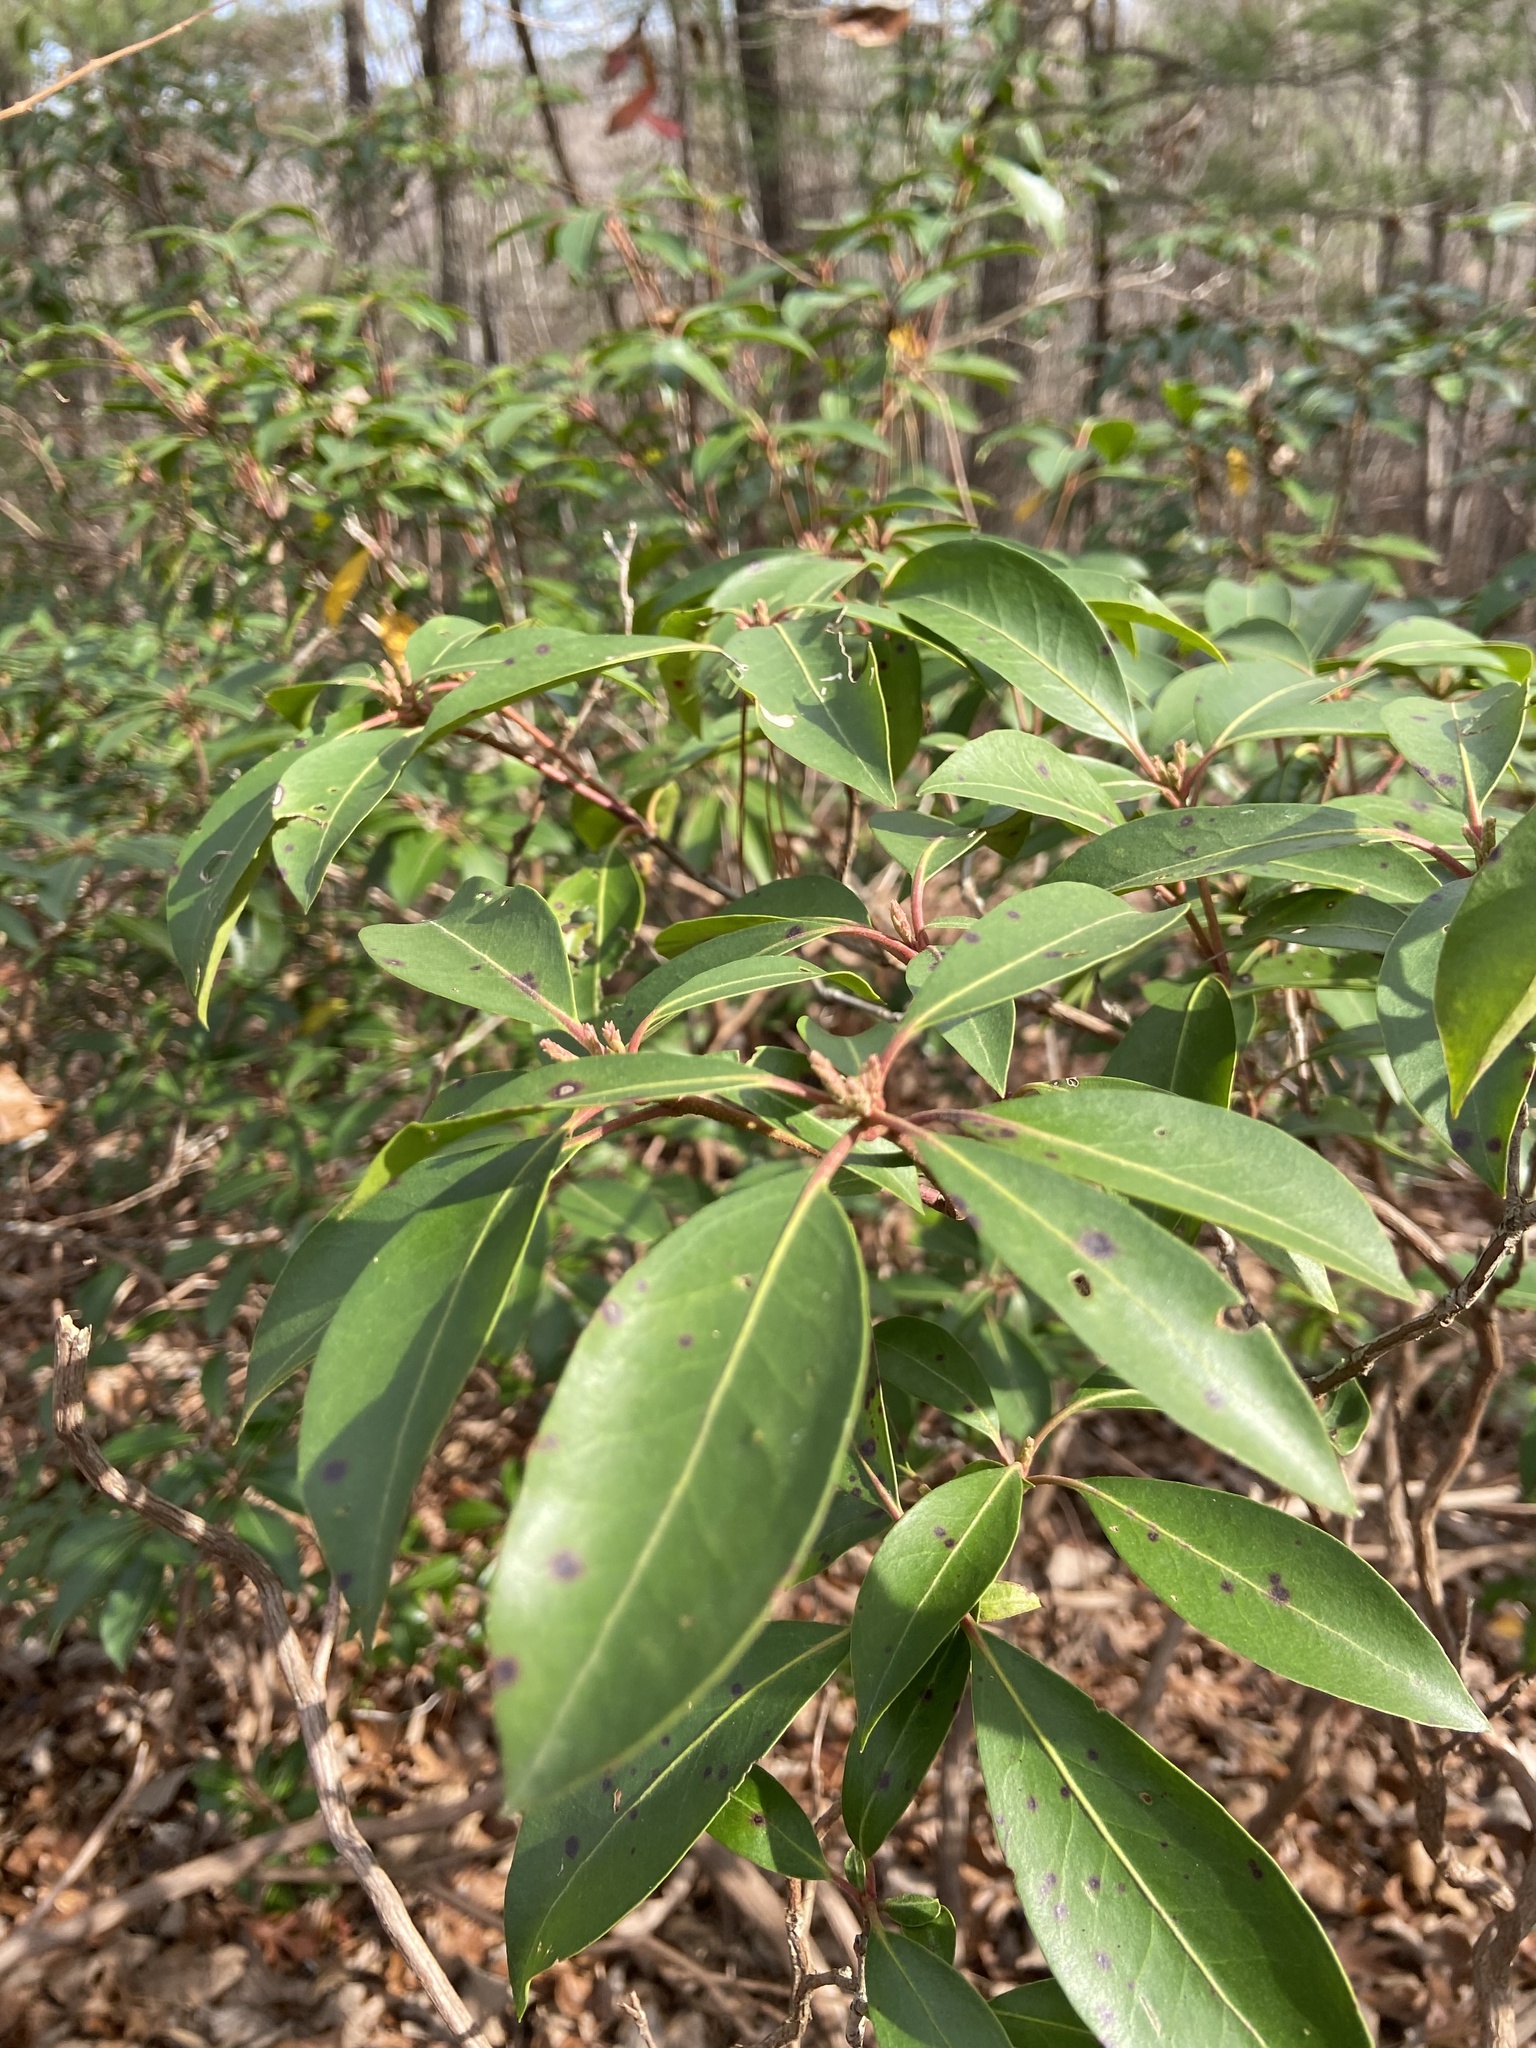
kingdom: Plantae
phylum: Tracheophyta
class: Magnoliopsida
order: Ericales
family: Ericaceae
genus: Kalmia
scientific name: Kalmia latifolia
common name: Mountain-laurel
